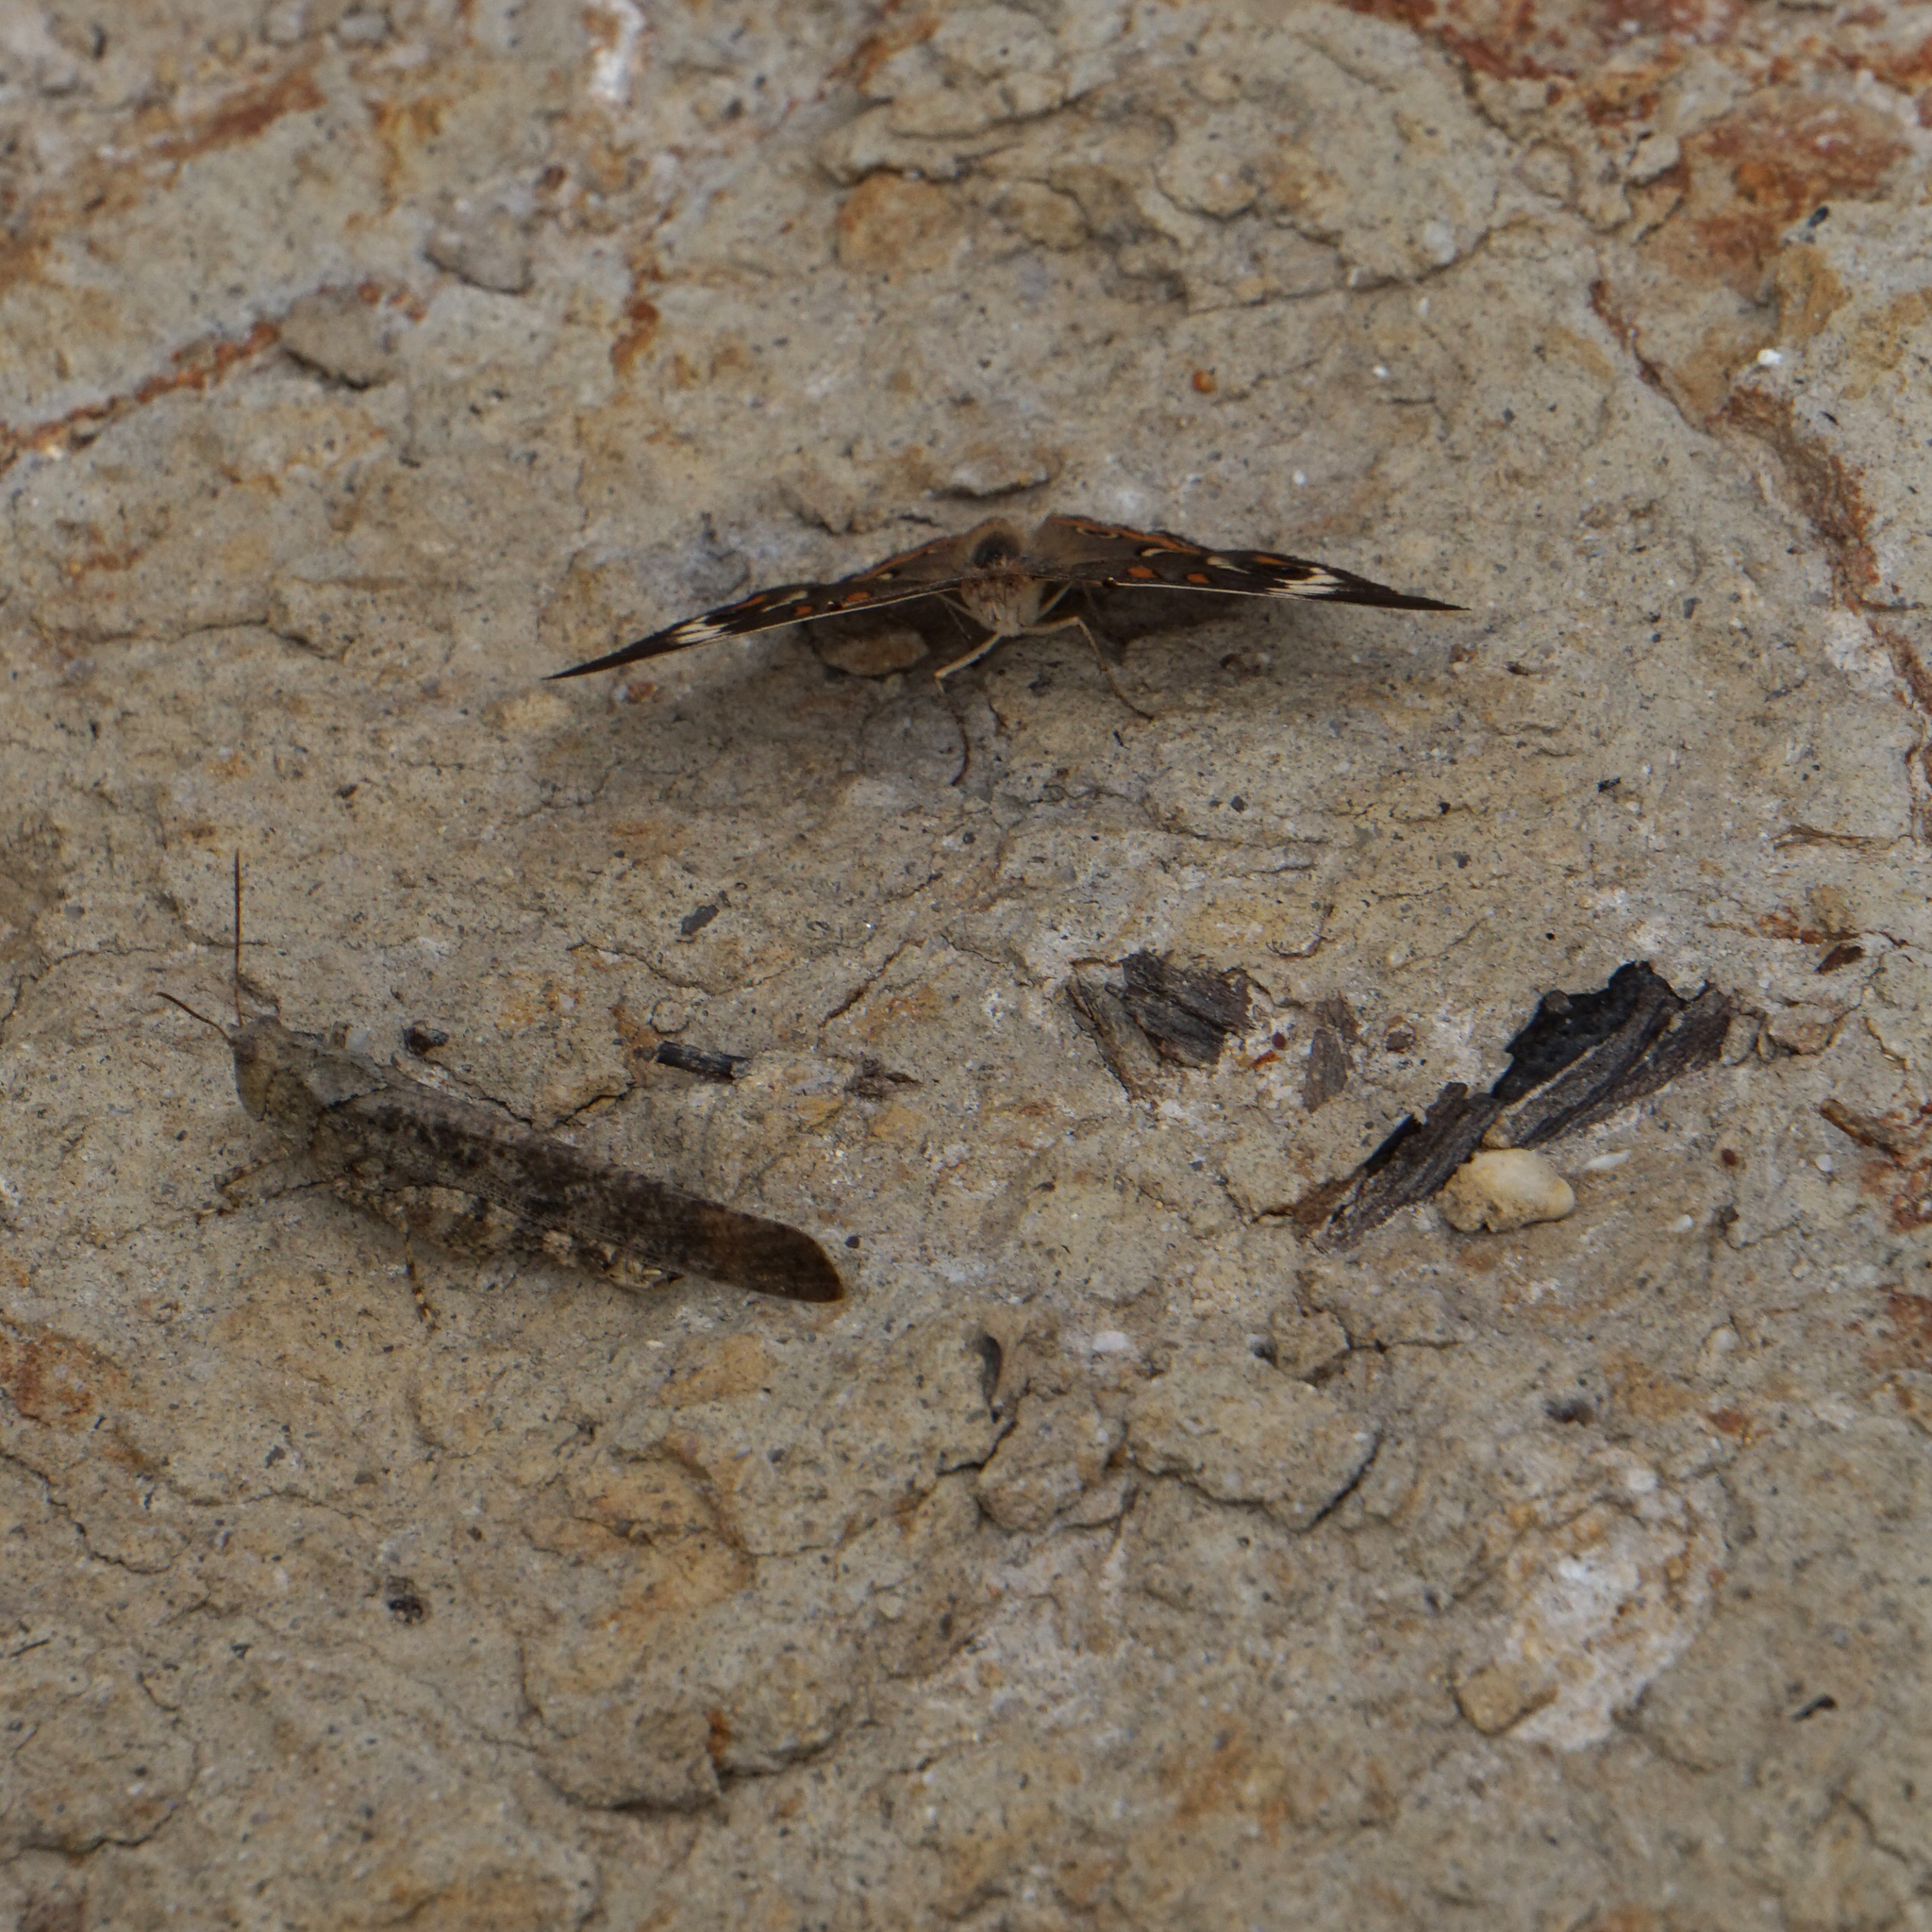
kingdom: Animalia
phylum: Arthropoda
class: Insecta
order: Orthoptera
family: Acrididae
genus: Dissosteira
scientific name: Dissosteira carolina
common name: Carolina grasshopper
